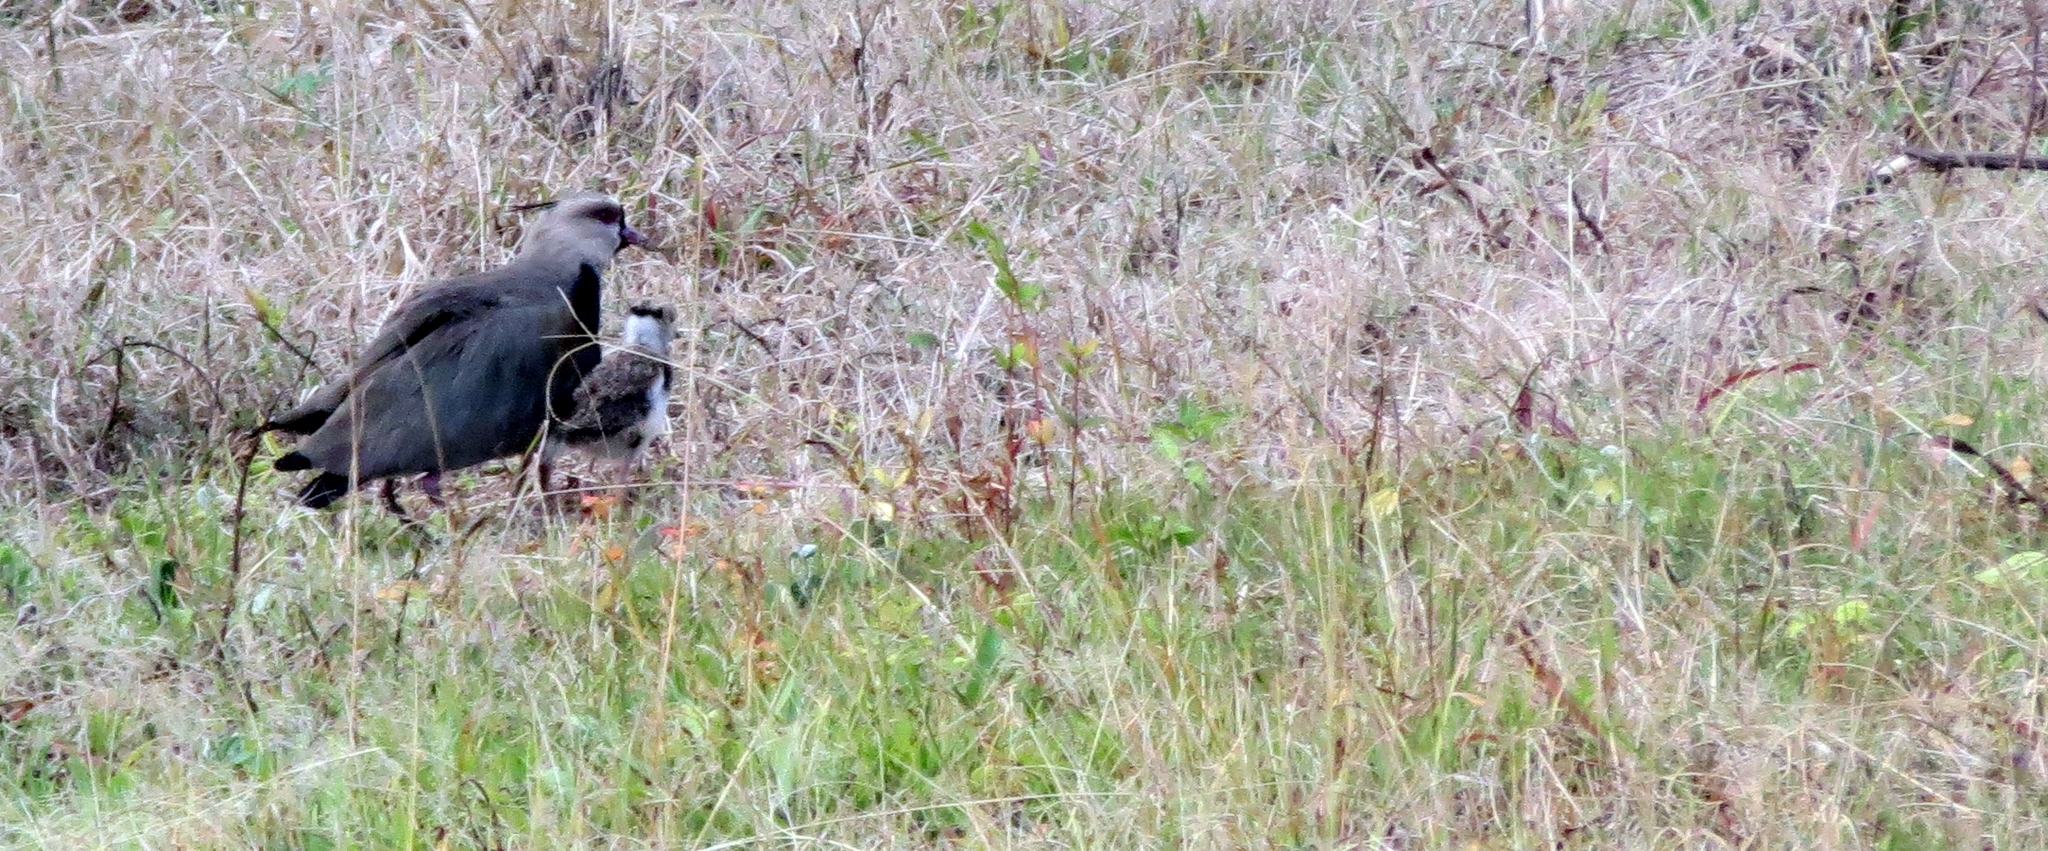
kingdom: Animalia
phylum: Chordata
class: Aves
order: Charadriiformes
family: Charadriidae
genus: Vanellus
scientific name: Vanellus chilensis
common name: Southern lapwing
